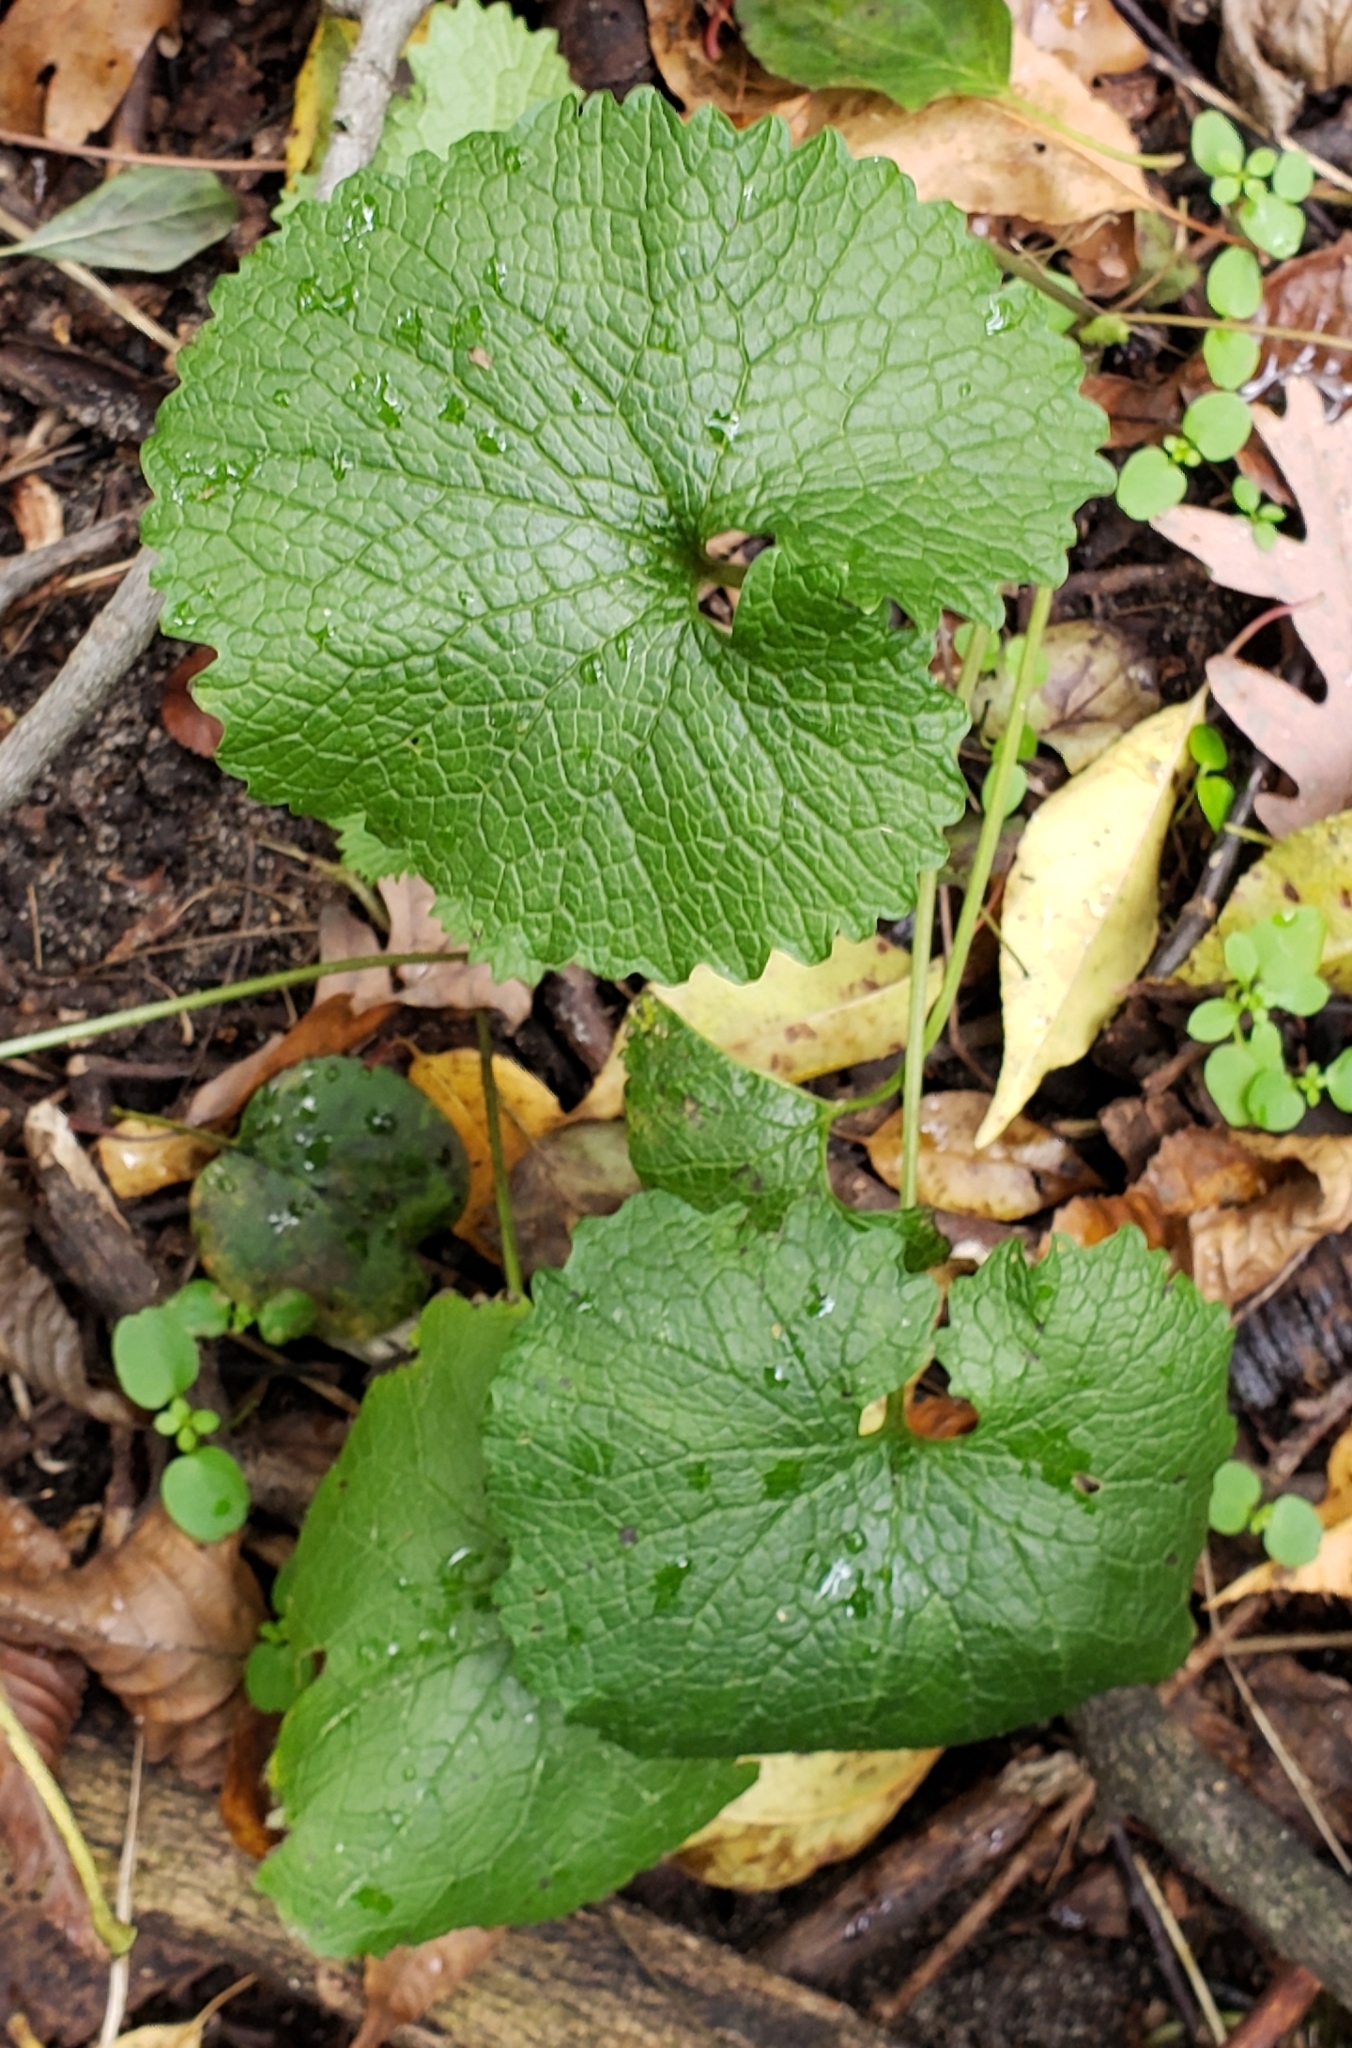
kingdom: Plantae
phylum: Tracheophyta
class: Magnoliopsida
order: Brassicales
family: Brassicaceae
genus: Alliaria
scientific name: Alliaria petiolata
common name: Garlic mustard
